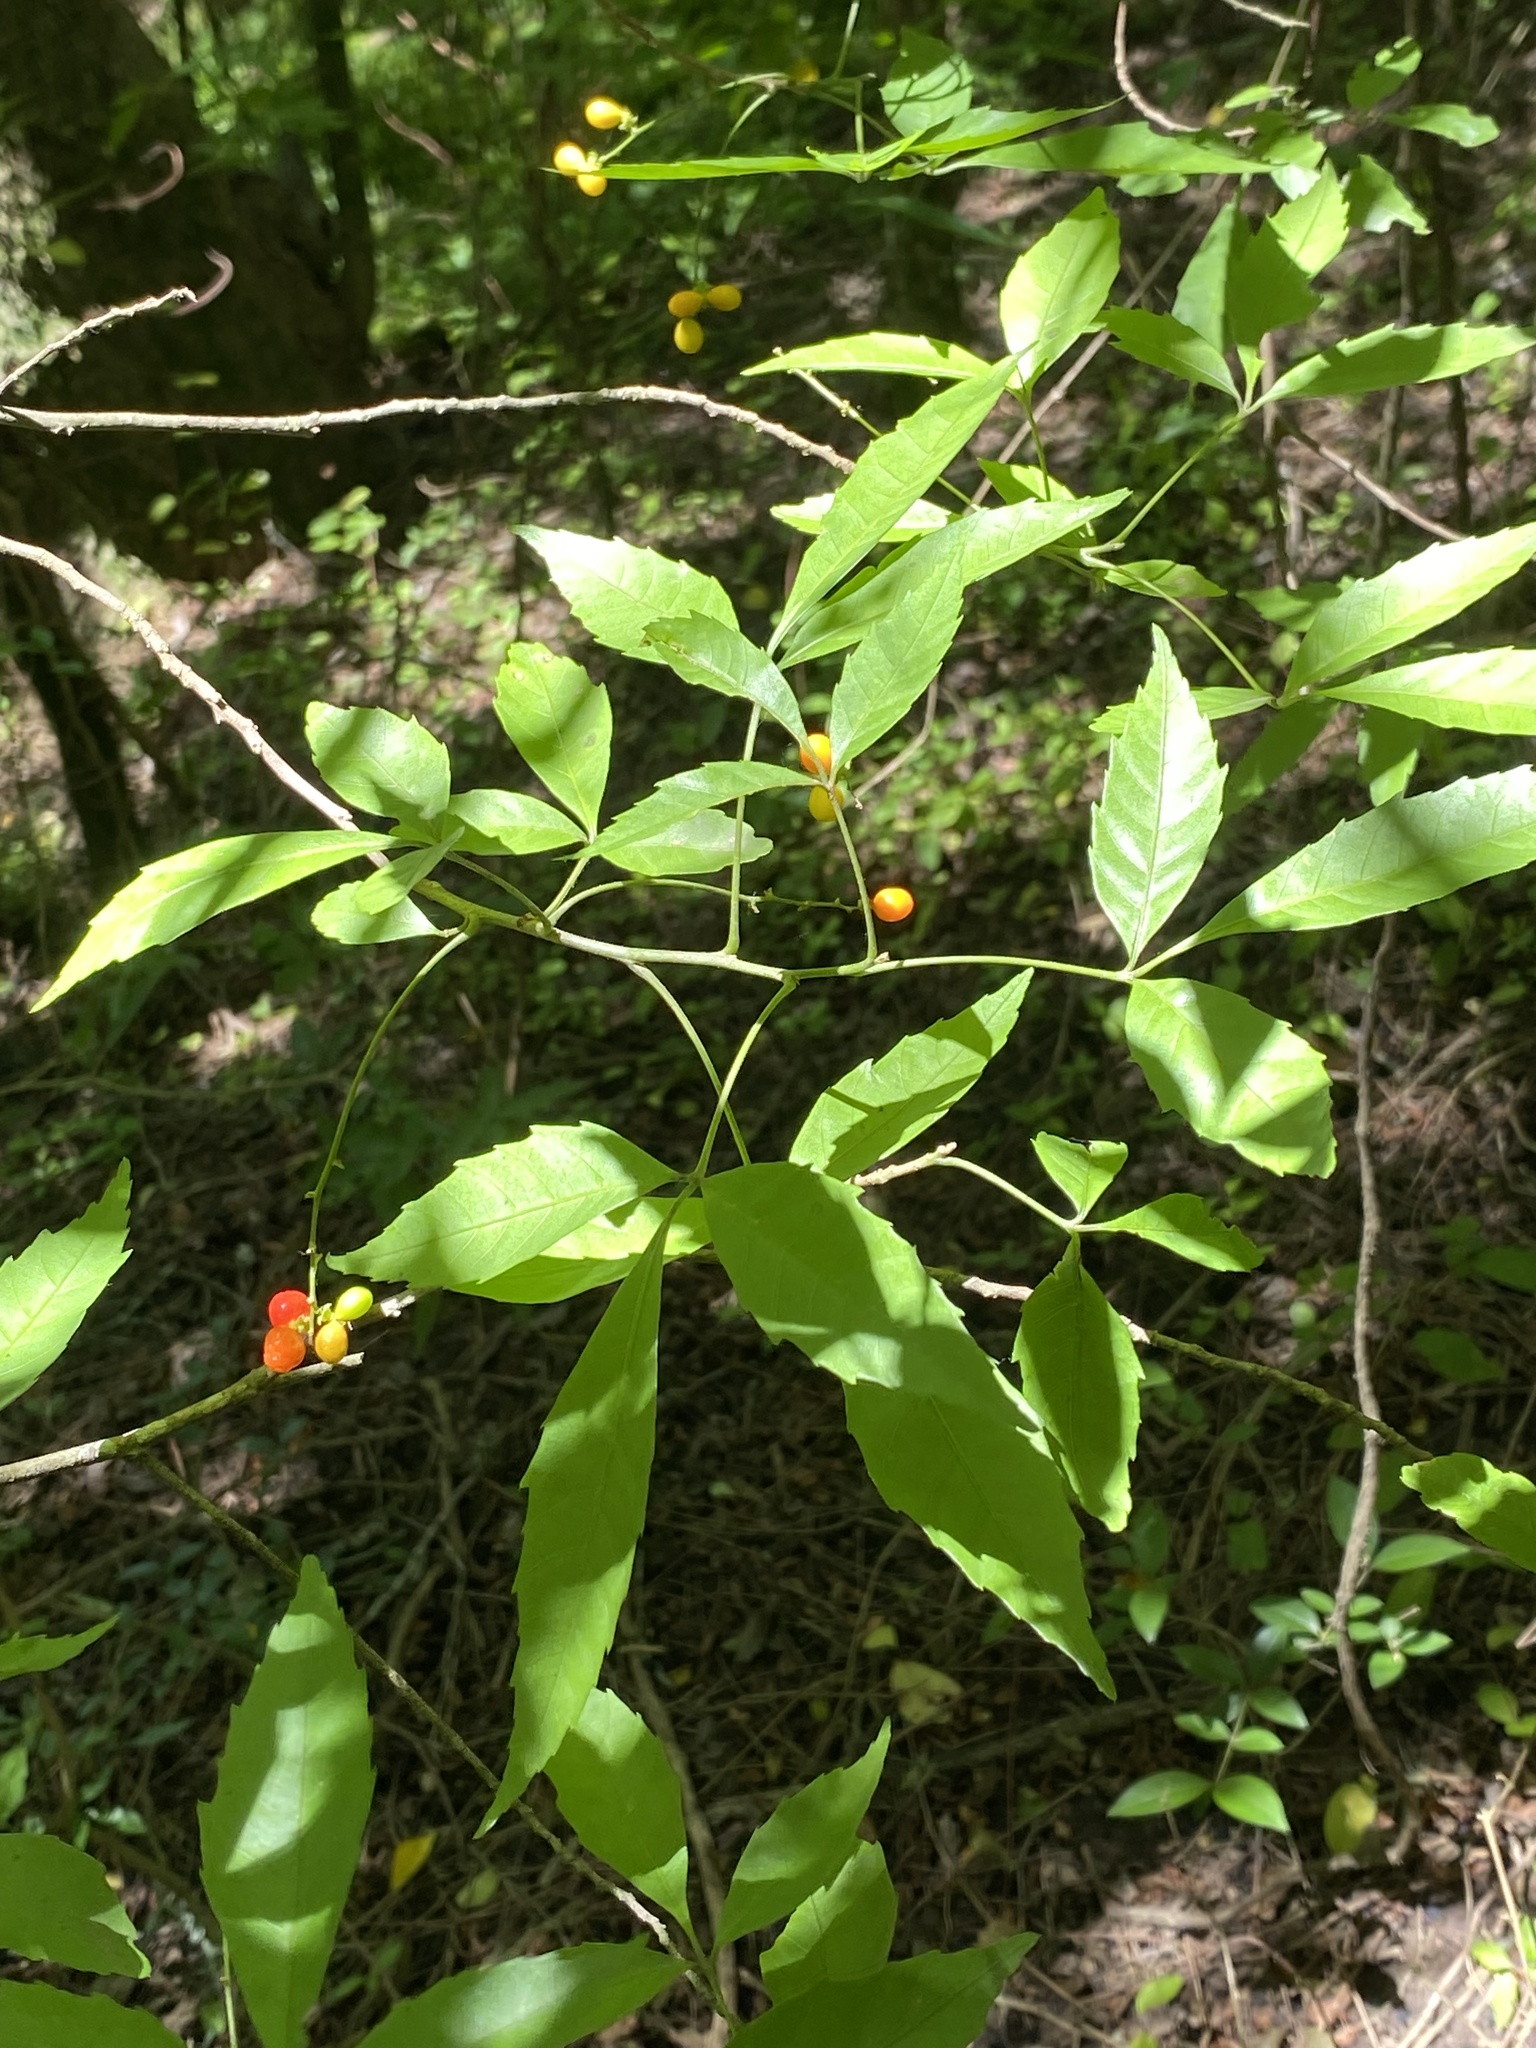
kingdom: Plantae
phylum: Tracheophyta
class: Magnoliopsida
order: Sapindales
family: Sapindaceae
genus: Allophylus
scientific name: Allophylus edulis
